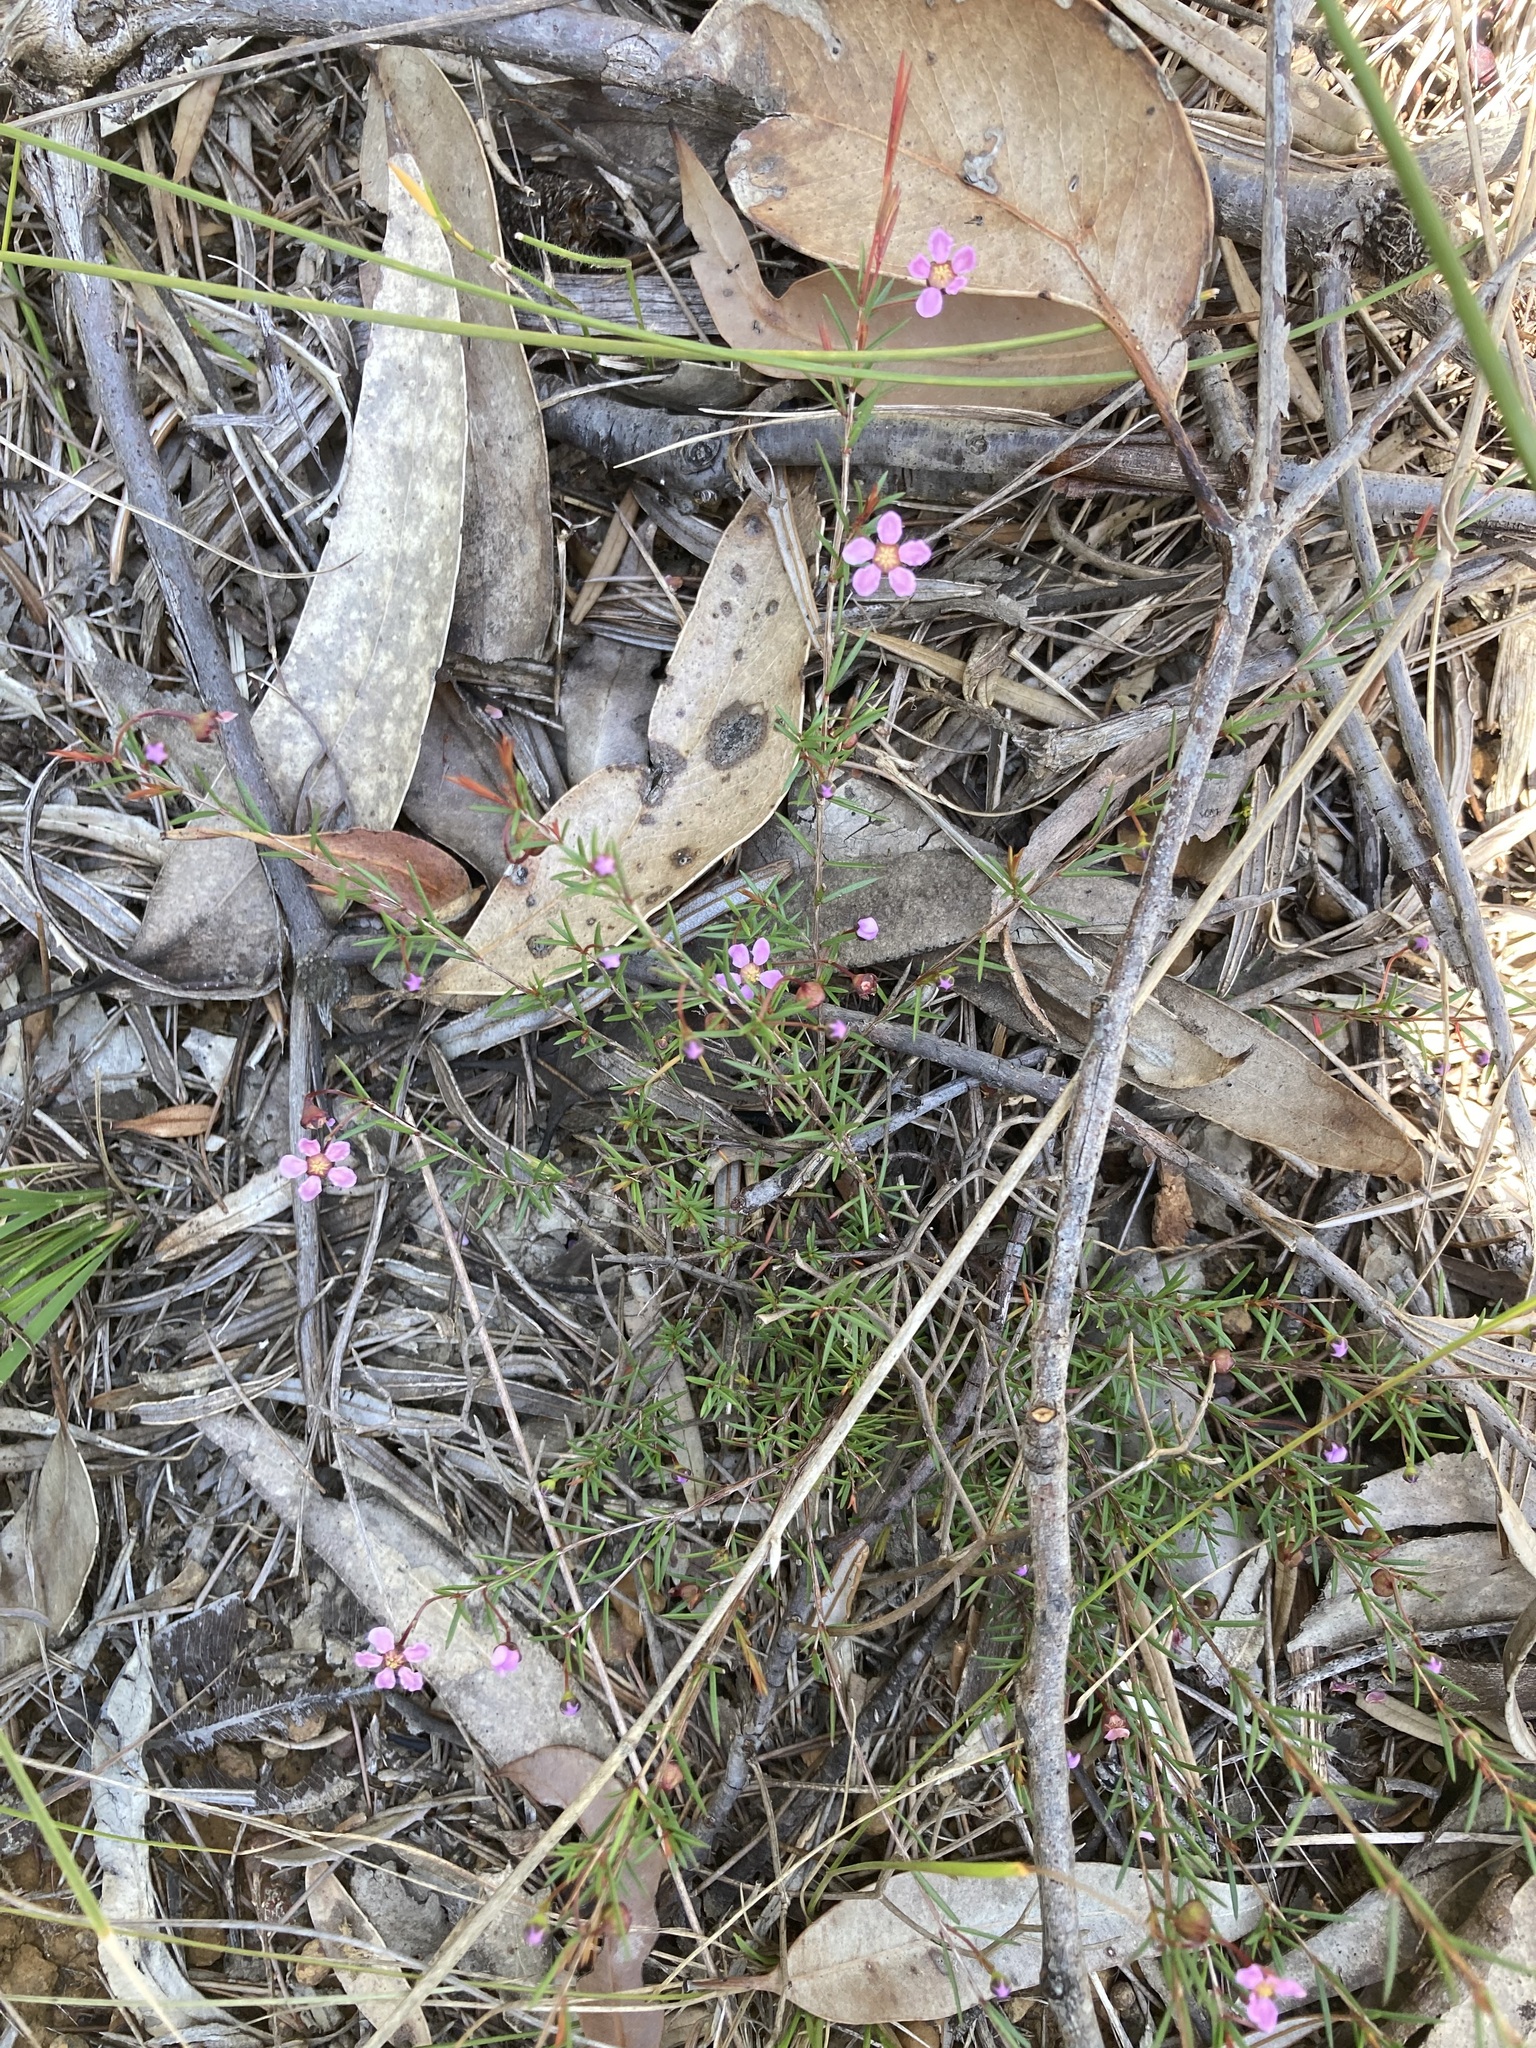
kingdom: Plantae
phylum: Tracheophyta
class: Magnoliopsida
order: Myrtales
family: Myrtaceae
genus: Euryomyrtus
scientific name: Euryomyrtus ramosissima
